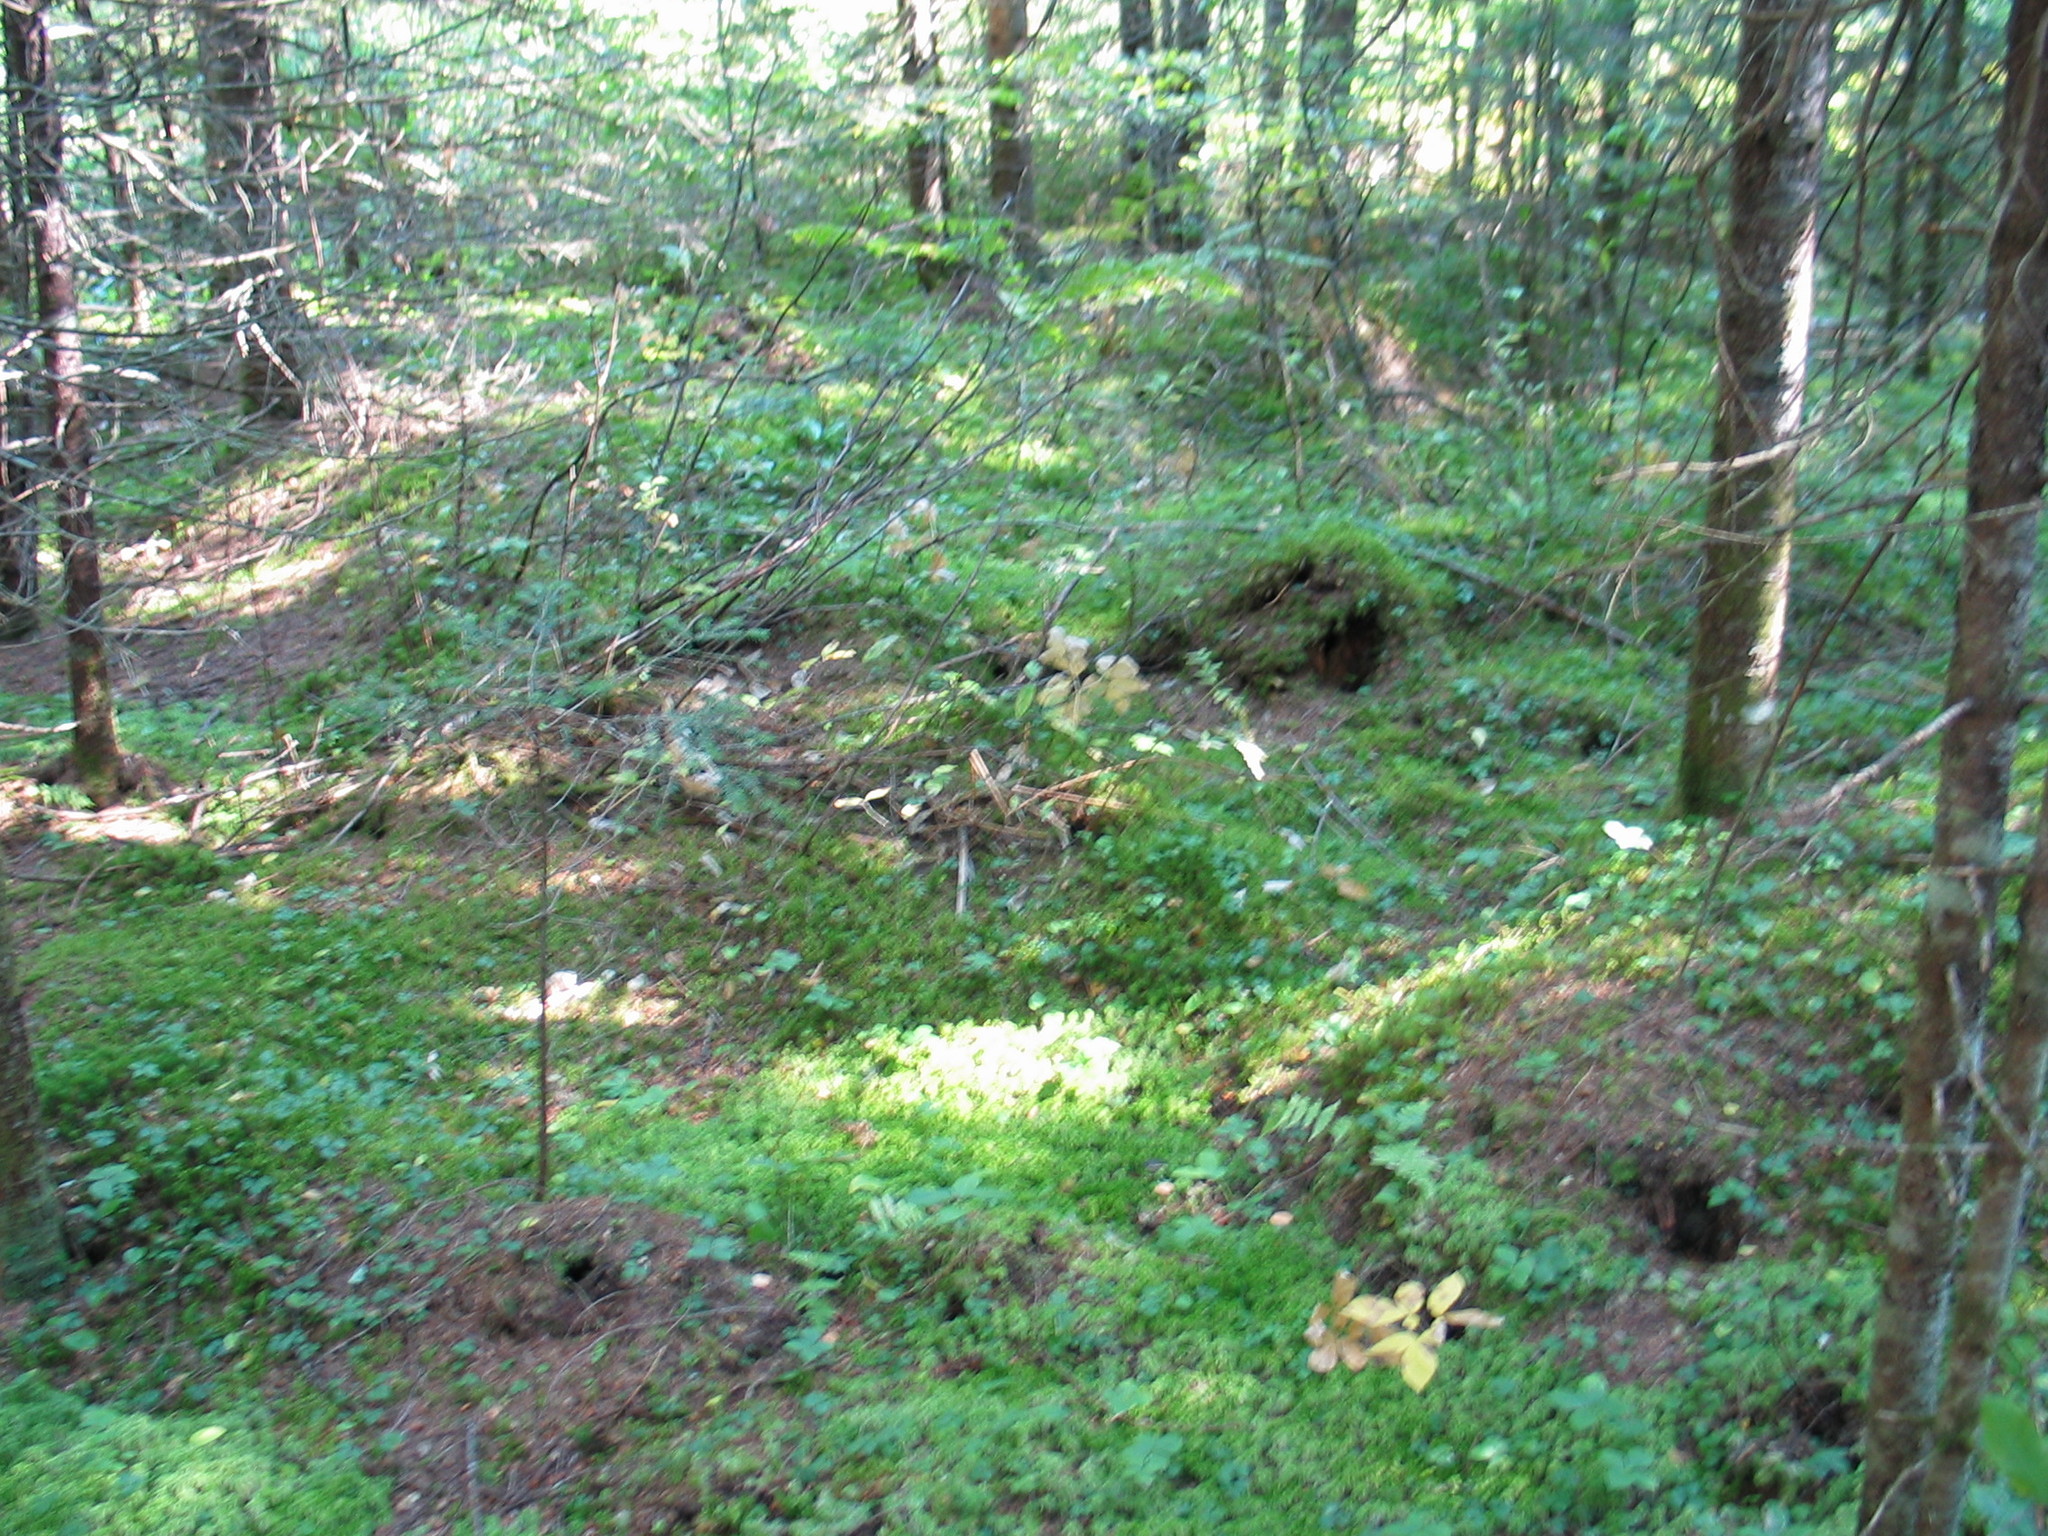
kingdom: Plantae
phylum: Tracheophyta
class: Magnoliopsida
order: Apiales
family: Araliaceae
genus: Aralia
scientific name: Aralia nudicaulis
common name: Wild sarsaparilla
